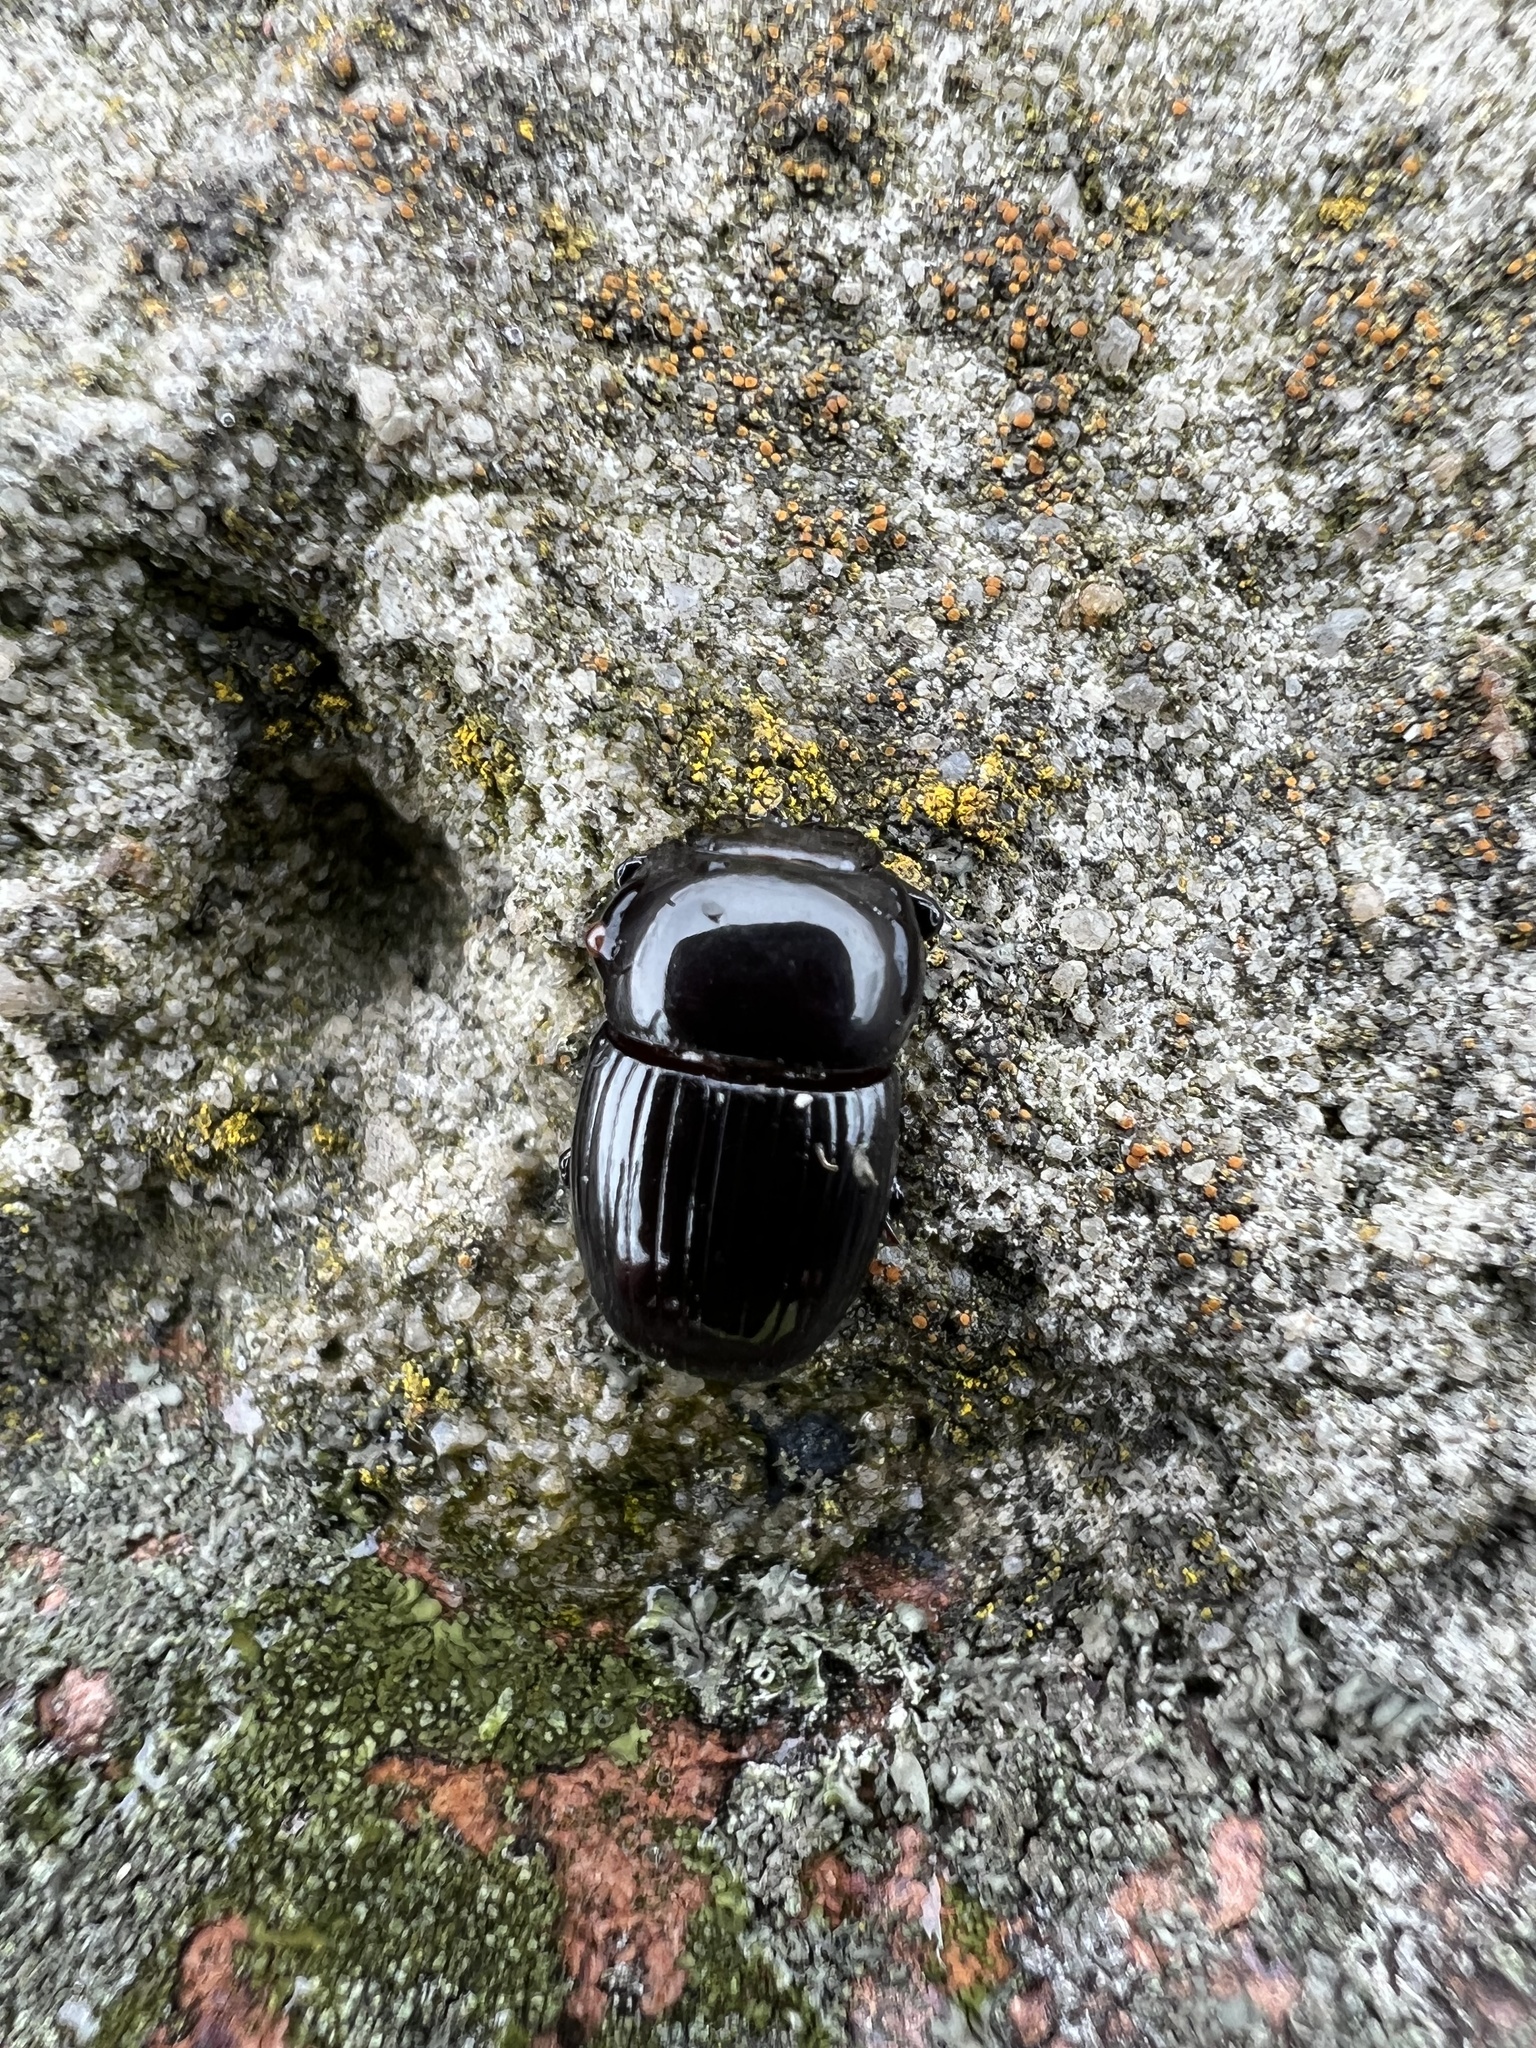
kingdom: Animalia
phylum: Arthropoda
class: Insecta
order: Coleoptera
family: Scarabaeidae
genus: Uroxys
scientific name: Uroxys coarctatus
